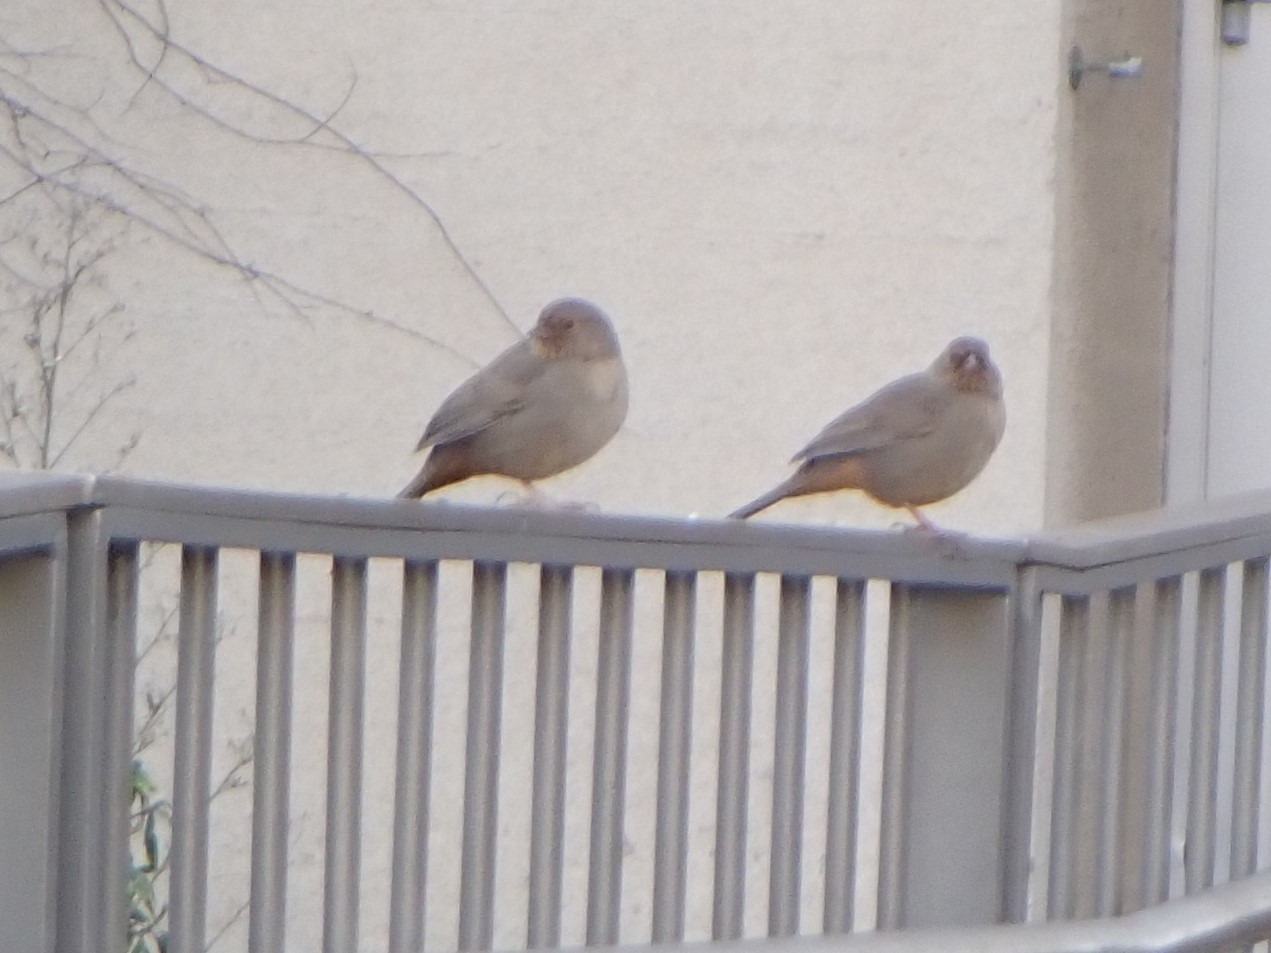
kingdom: Animalia
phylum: Chordata
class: Aves
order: Passeriformes
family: Passerellidae
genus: Melozone
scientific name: Melozone crissalis
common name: California towhee
